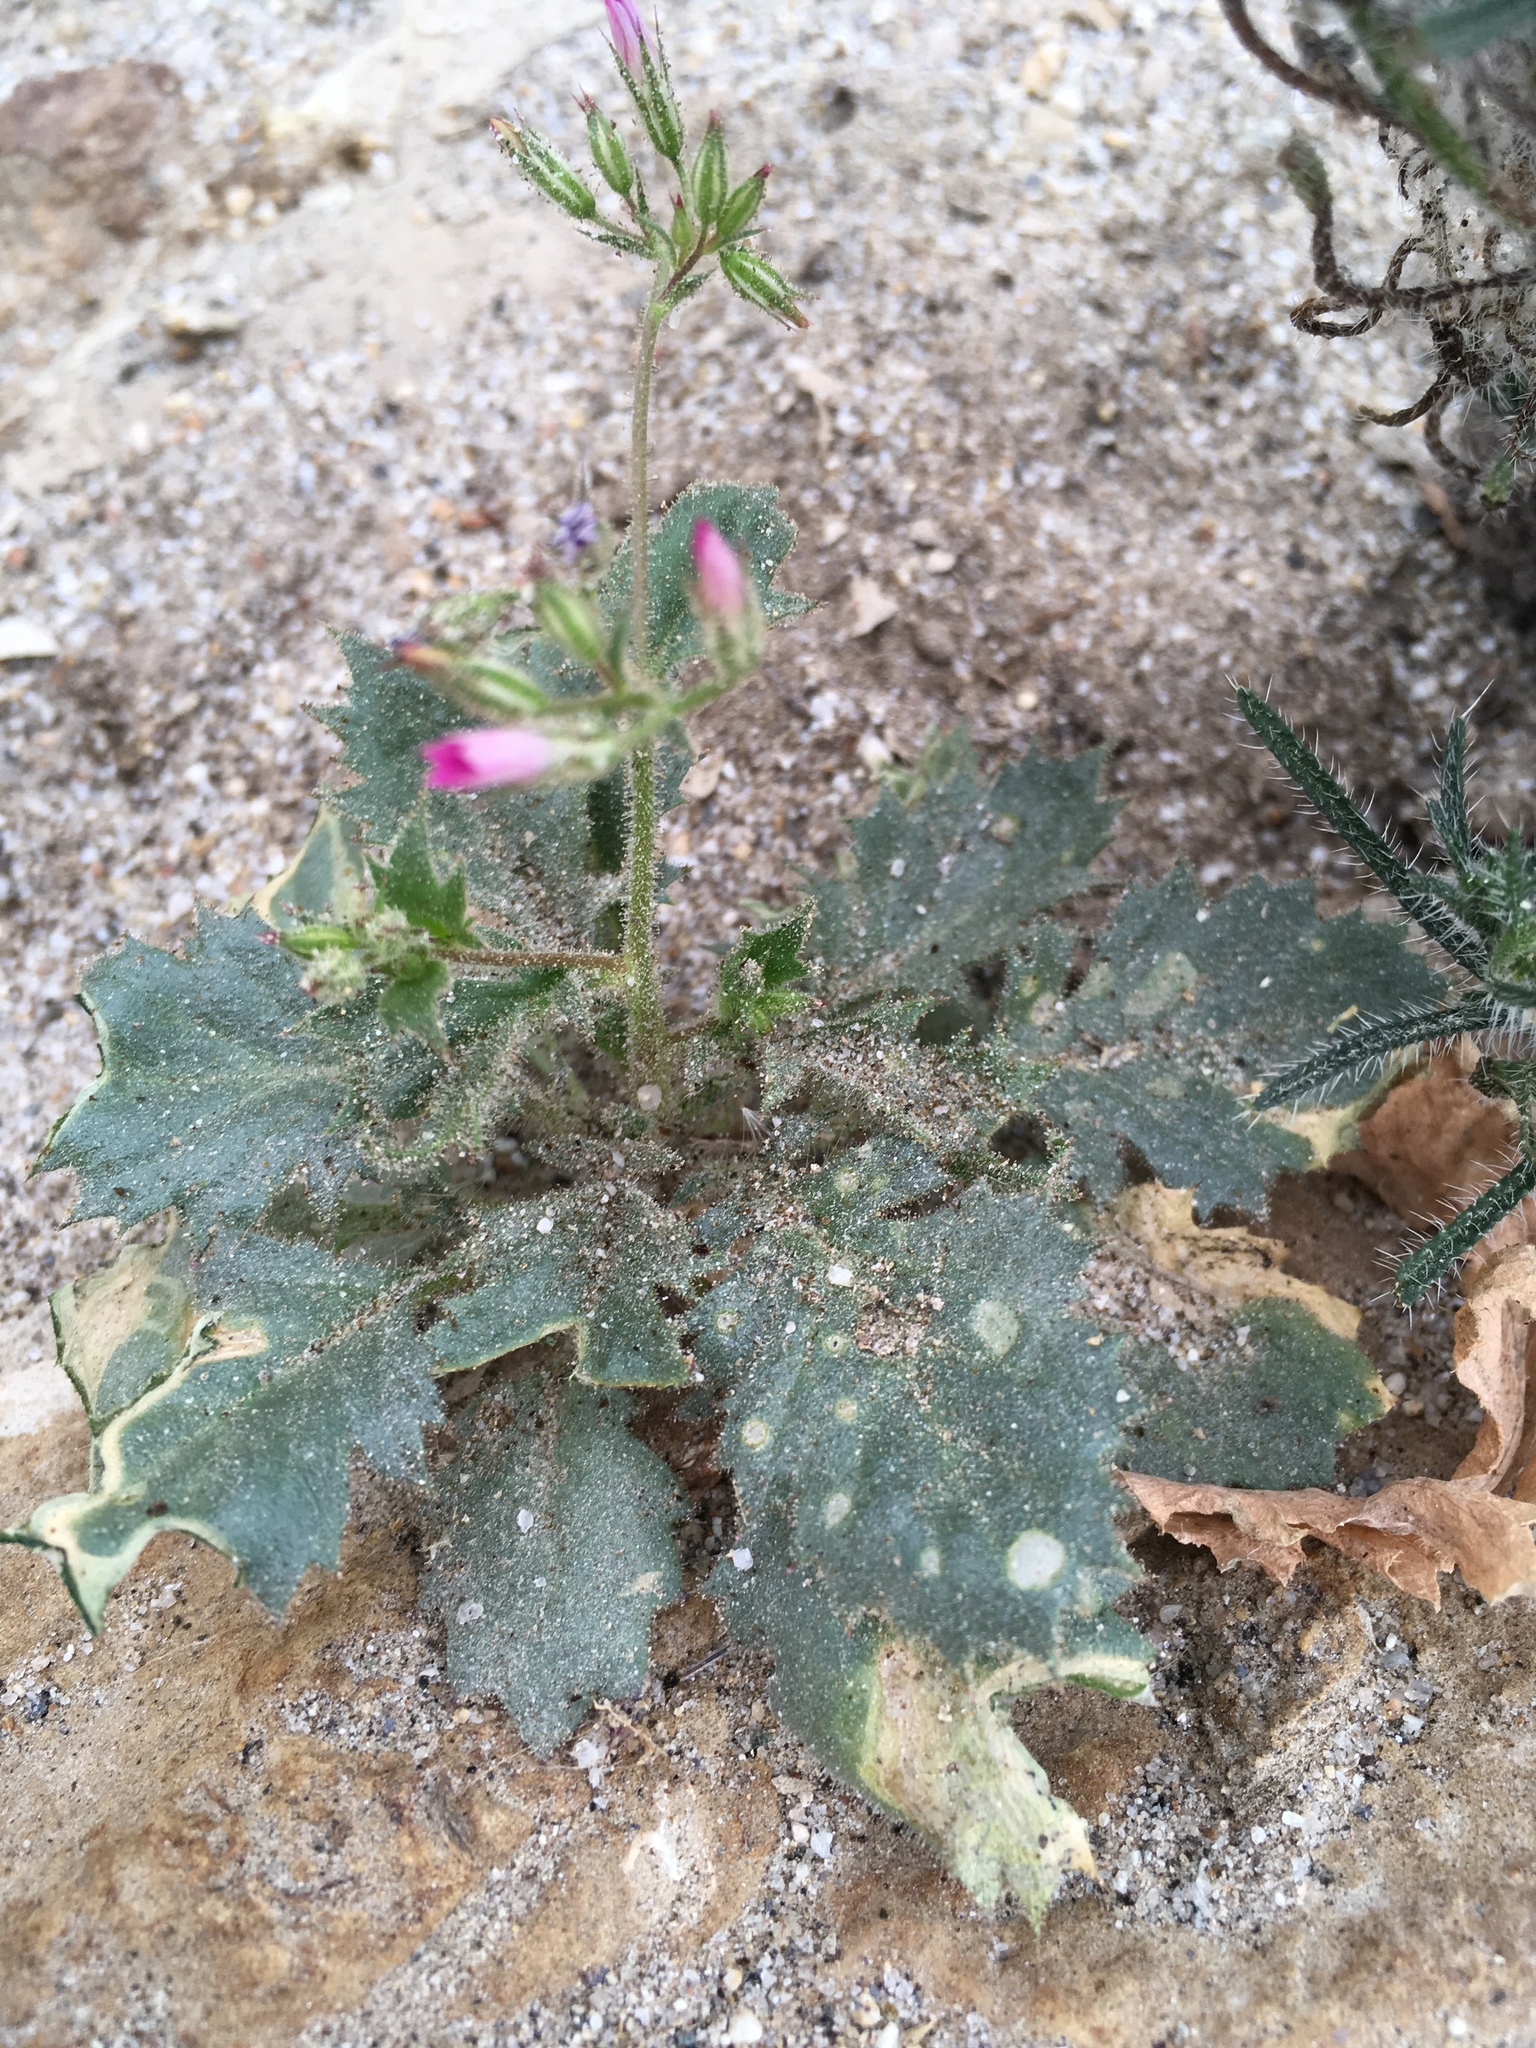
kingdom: Plantae
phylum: Tracheophyta
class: Magnoliopsida
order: Ericales
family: Polemoniaceae
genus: Aliciella
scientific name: Aliciella latifolia
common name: Broad-leaf gilia
